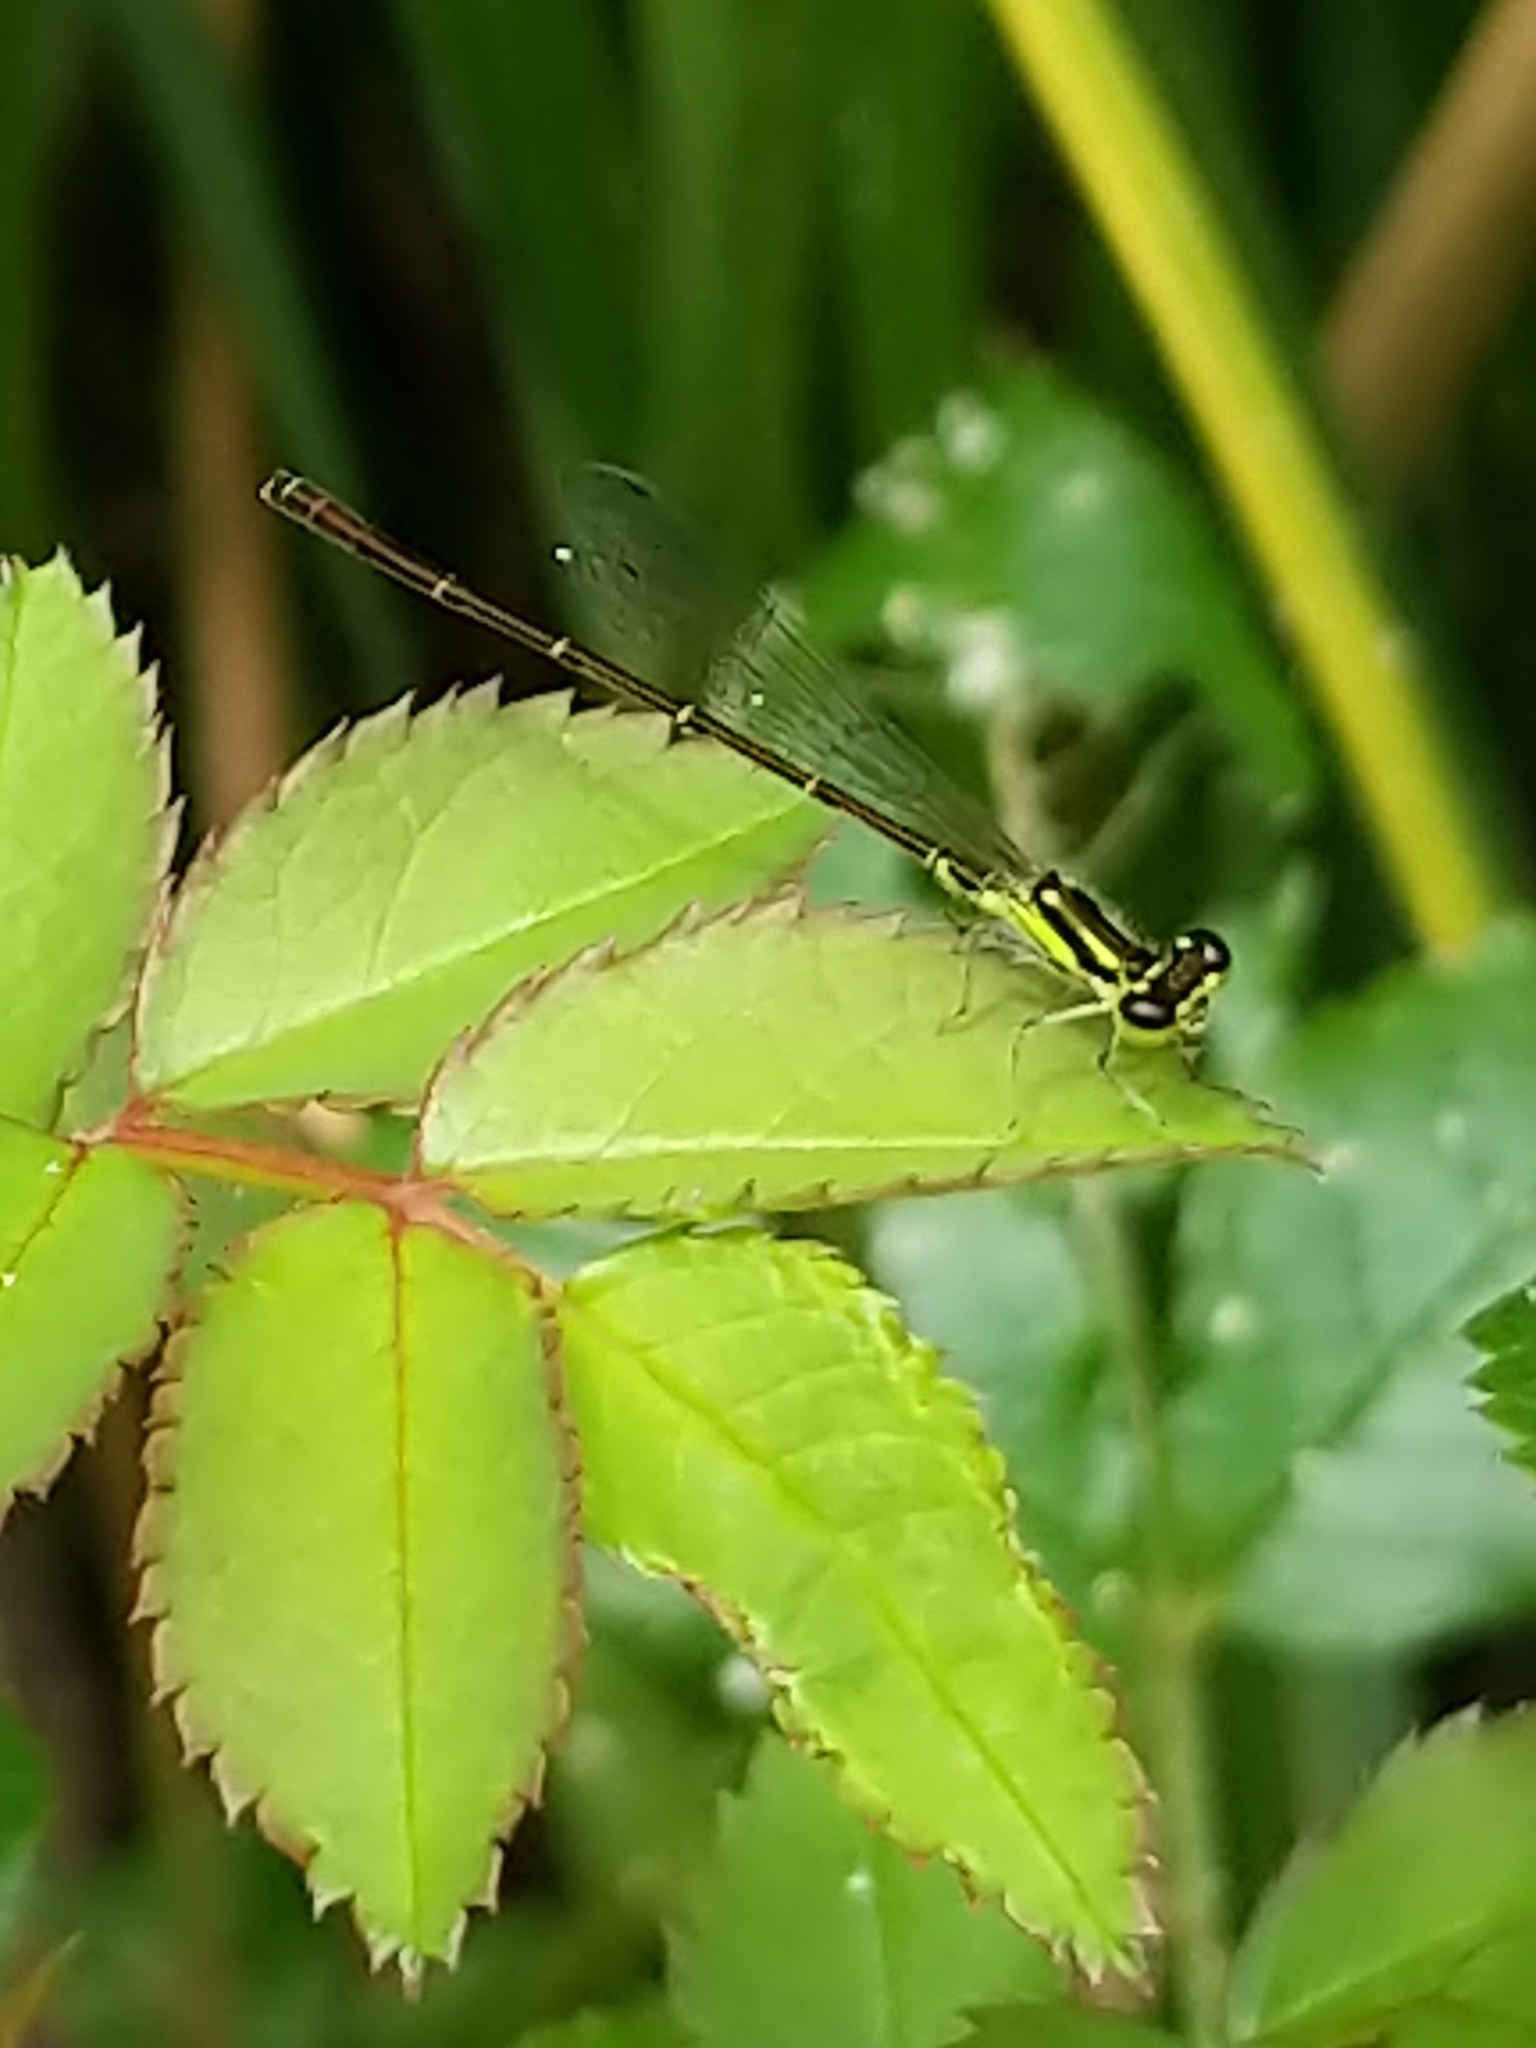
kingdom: Animalia
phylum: Arthropoda
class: Insecta
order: Odonata
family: Coenagrionidae
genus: Ischnura
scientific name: Ischnura posita
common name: Fragile forktail
